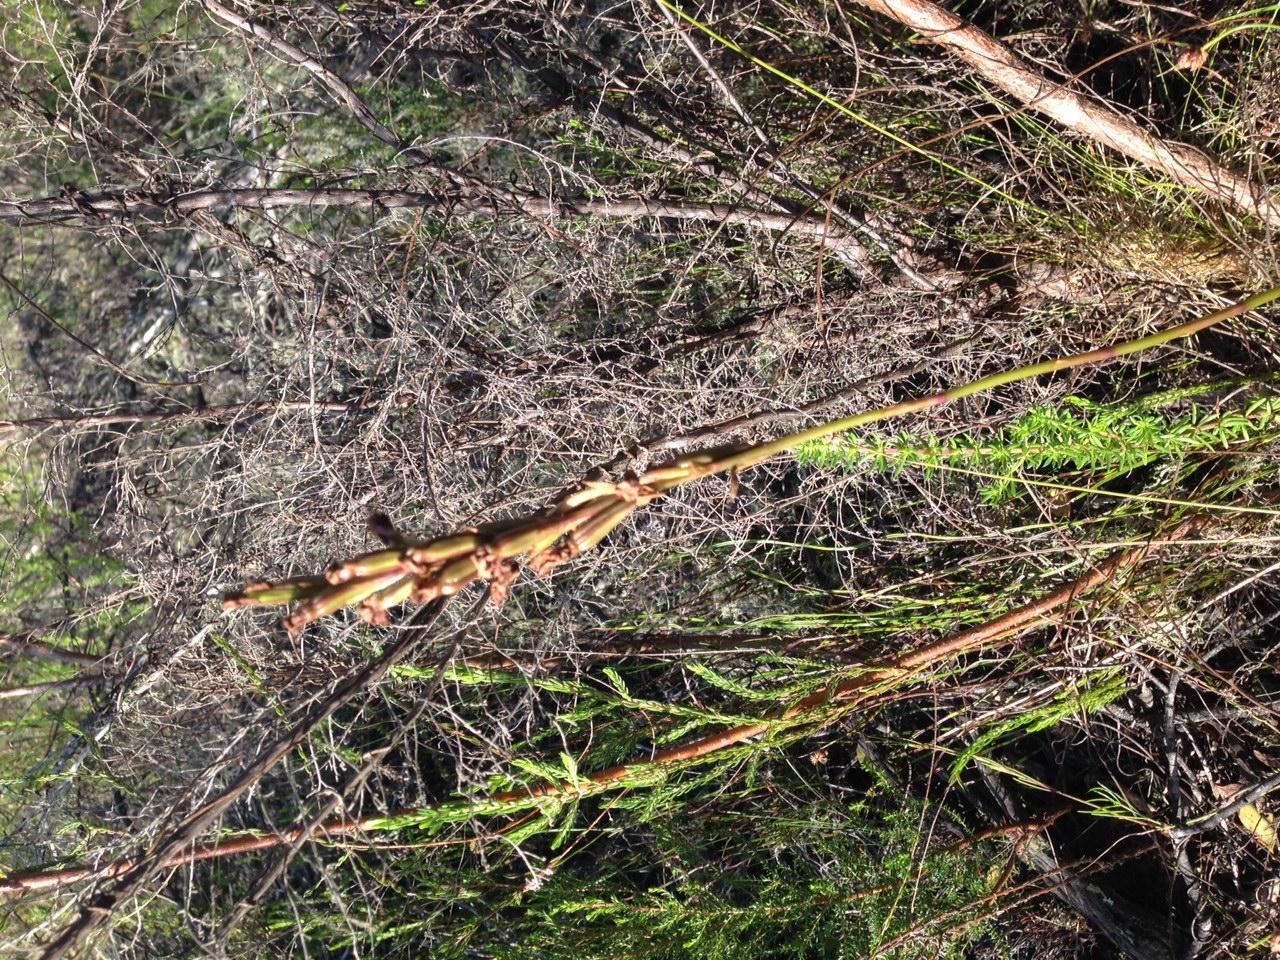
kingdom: Plantae
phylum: Tracheophyta
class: Liliopsida
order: Asparagales
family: Orchidaceae
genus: Disa
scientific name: Disa procera
